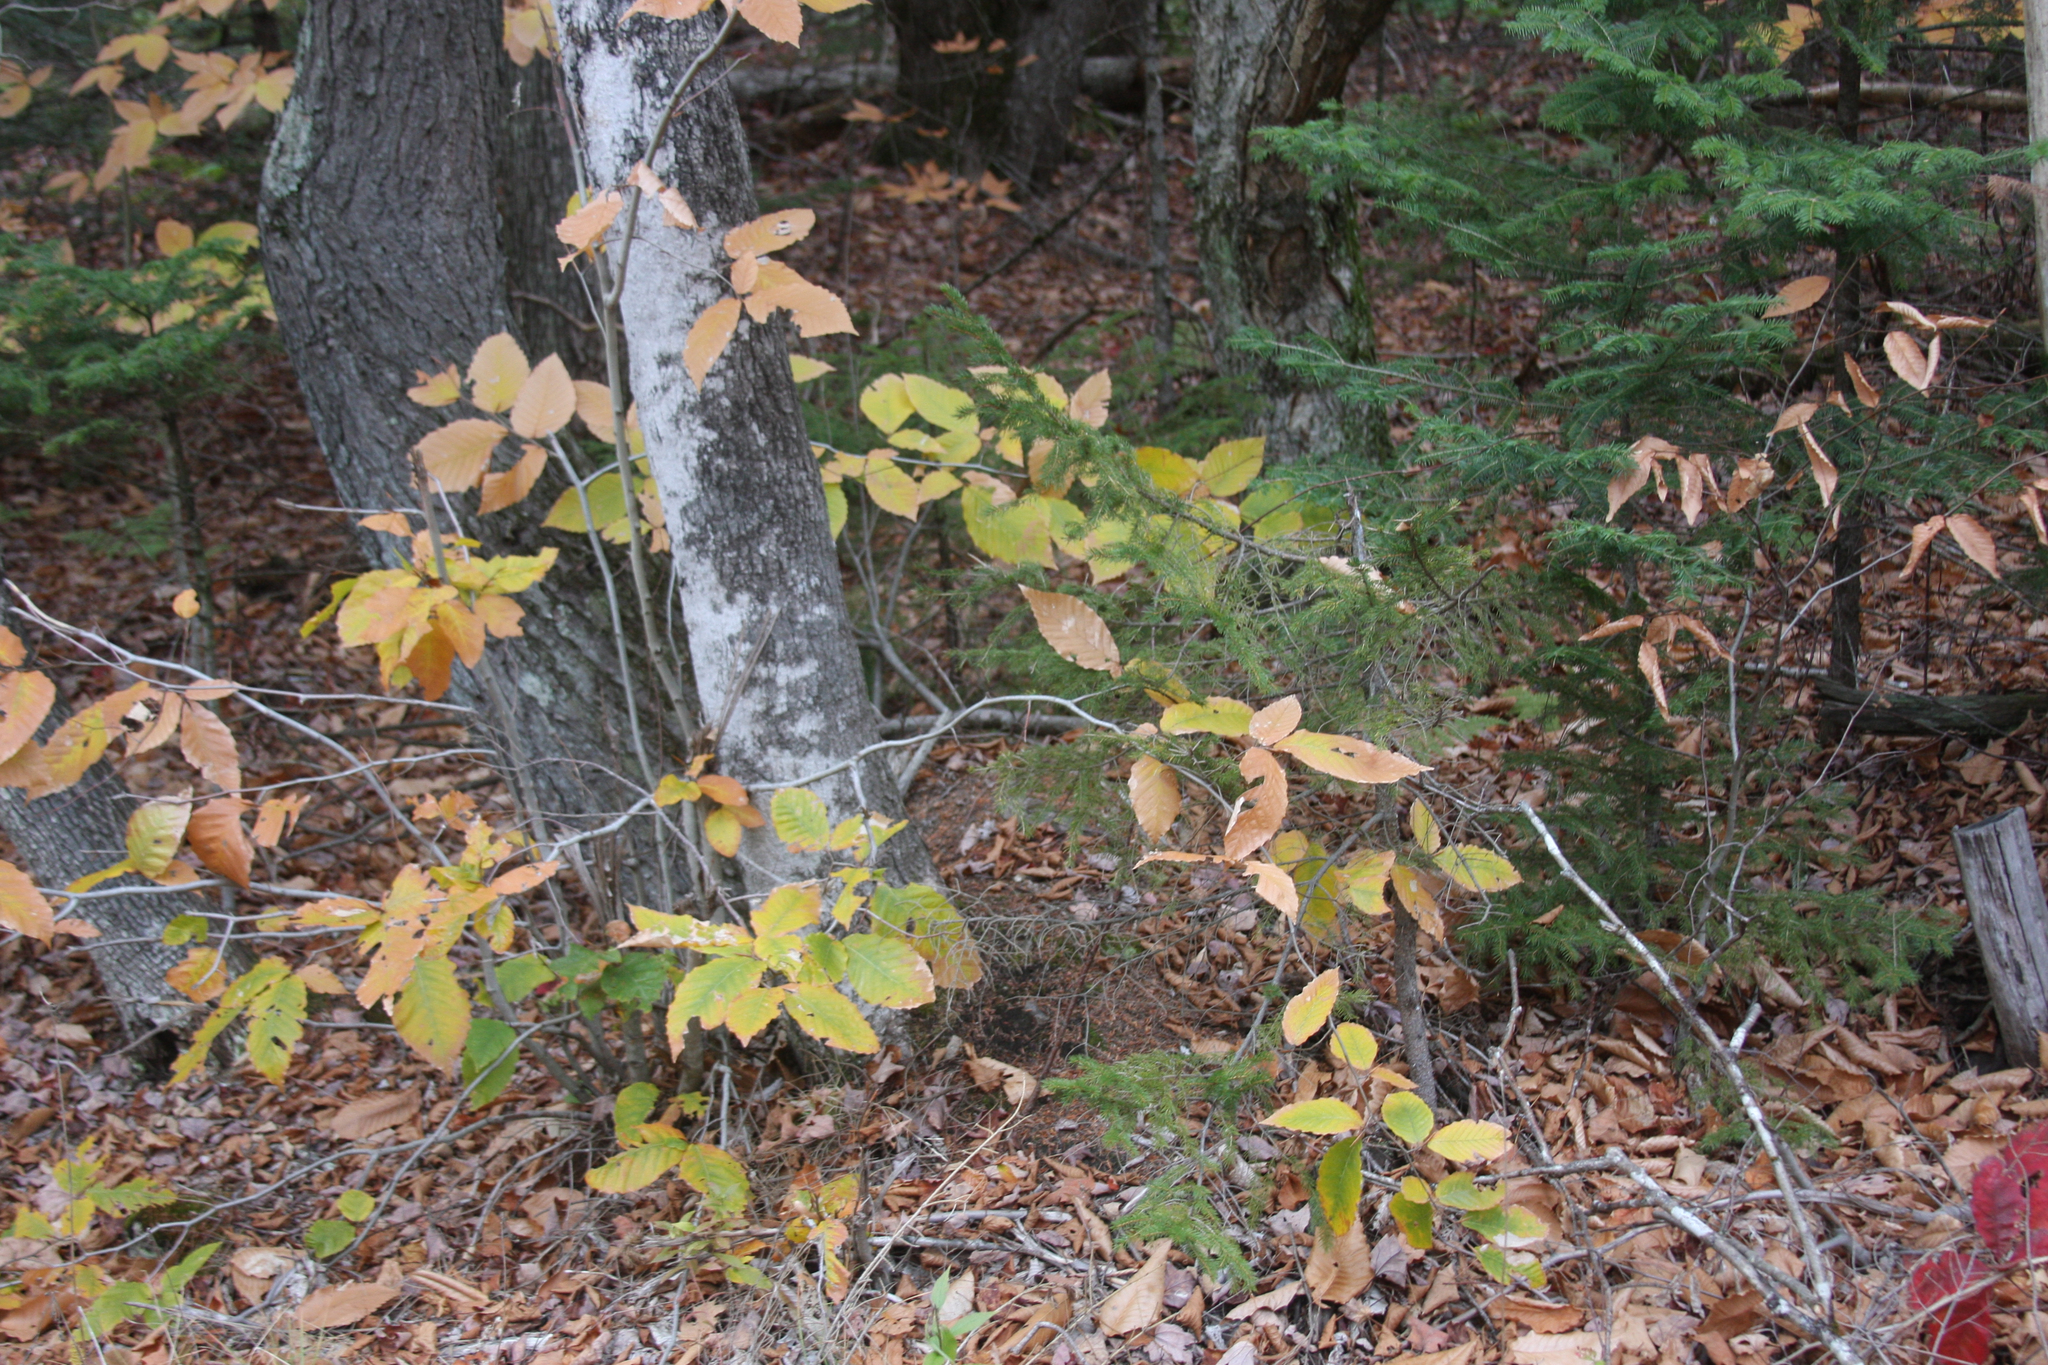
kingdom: Plantae
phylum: Tracheophyta
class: Magnoliopsida
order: Fagales
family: Fagaceae
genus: Fagus
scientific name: Fagus grandifolia
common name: American beech
